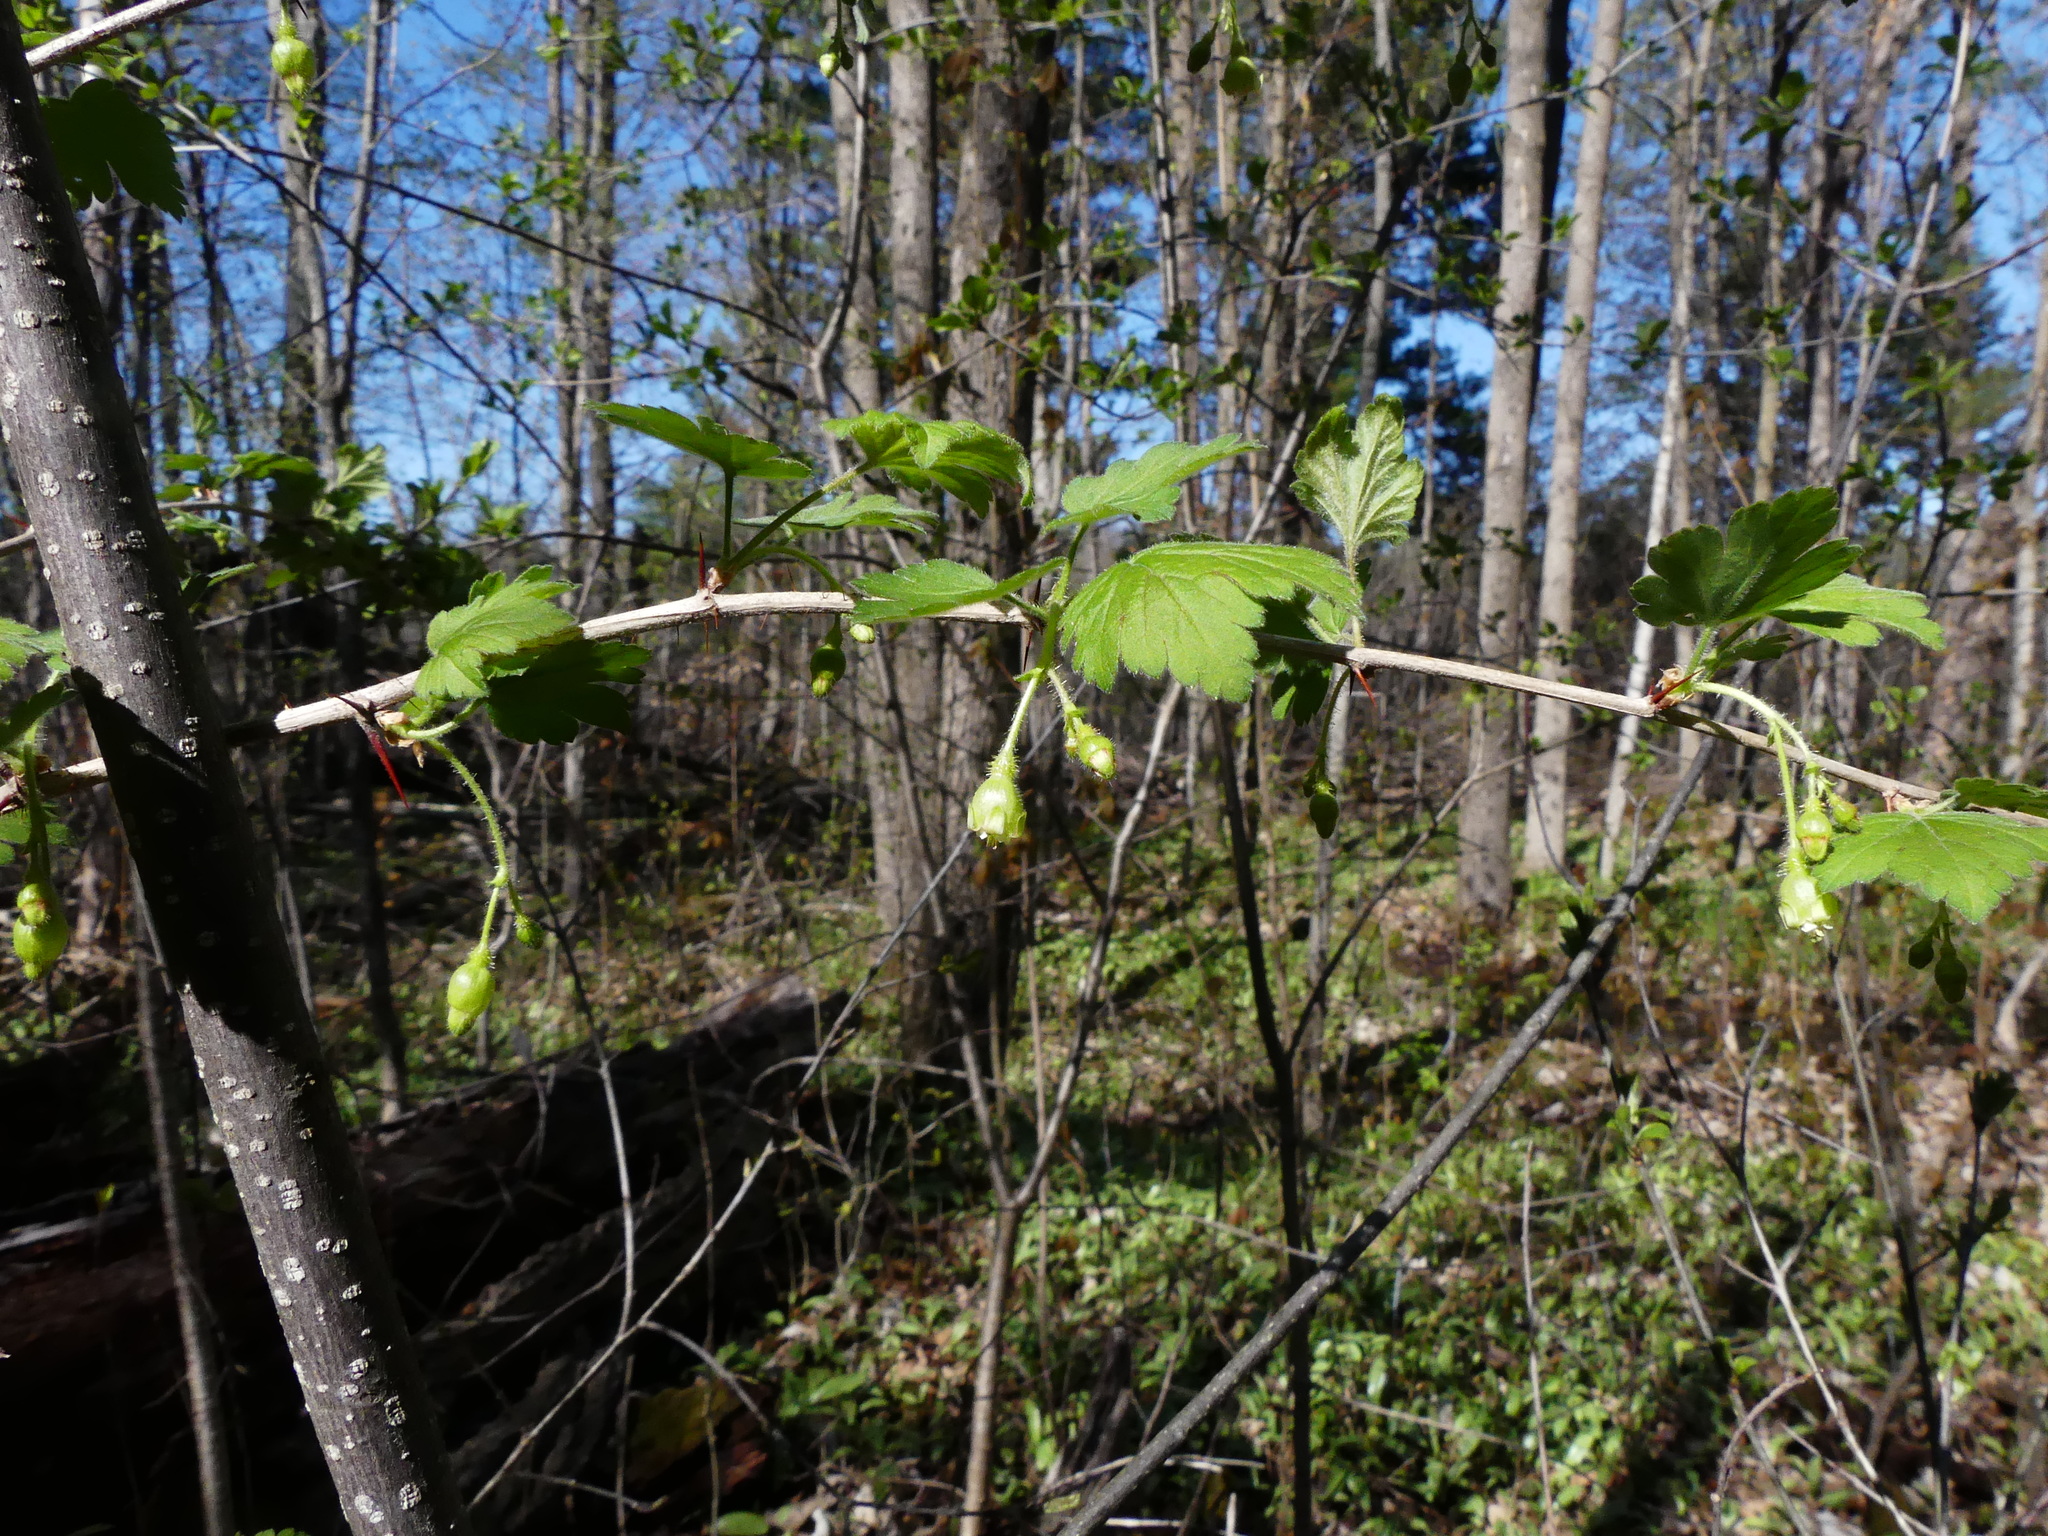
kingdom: Plantae
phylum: Tracheophyta
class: Magnoliopsida
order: Saxifragales
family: Grossulariaceae
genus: Ribes
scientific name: Ribes cynosbati
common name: American gooseberry
